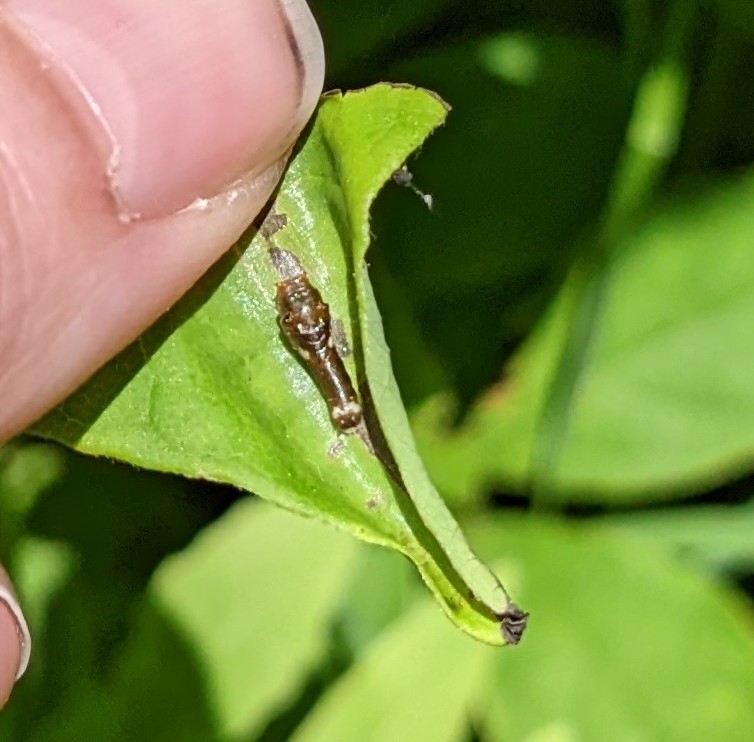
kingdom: Animalia
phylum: Arthropoda
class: Insecta
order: Lepidoptera
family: Papilionidae
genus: Papilio
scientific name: Papilio troilus
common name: Spicebush swallowtail
